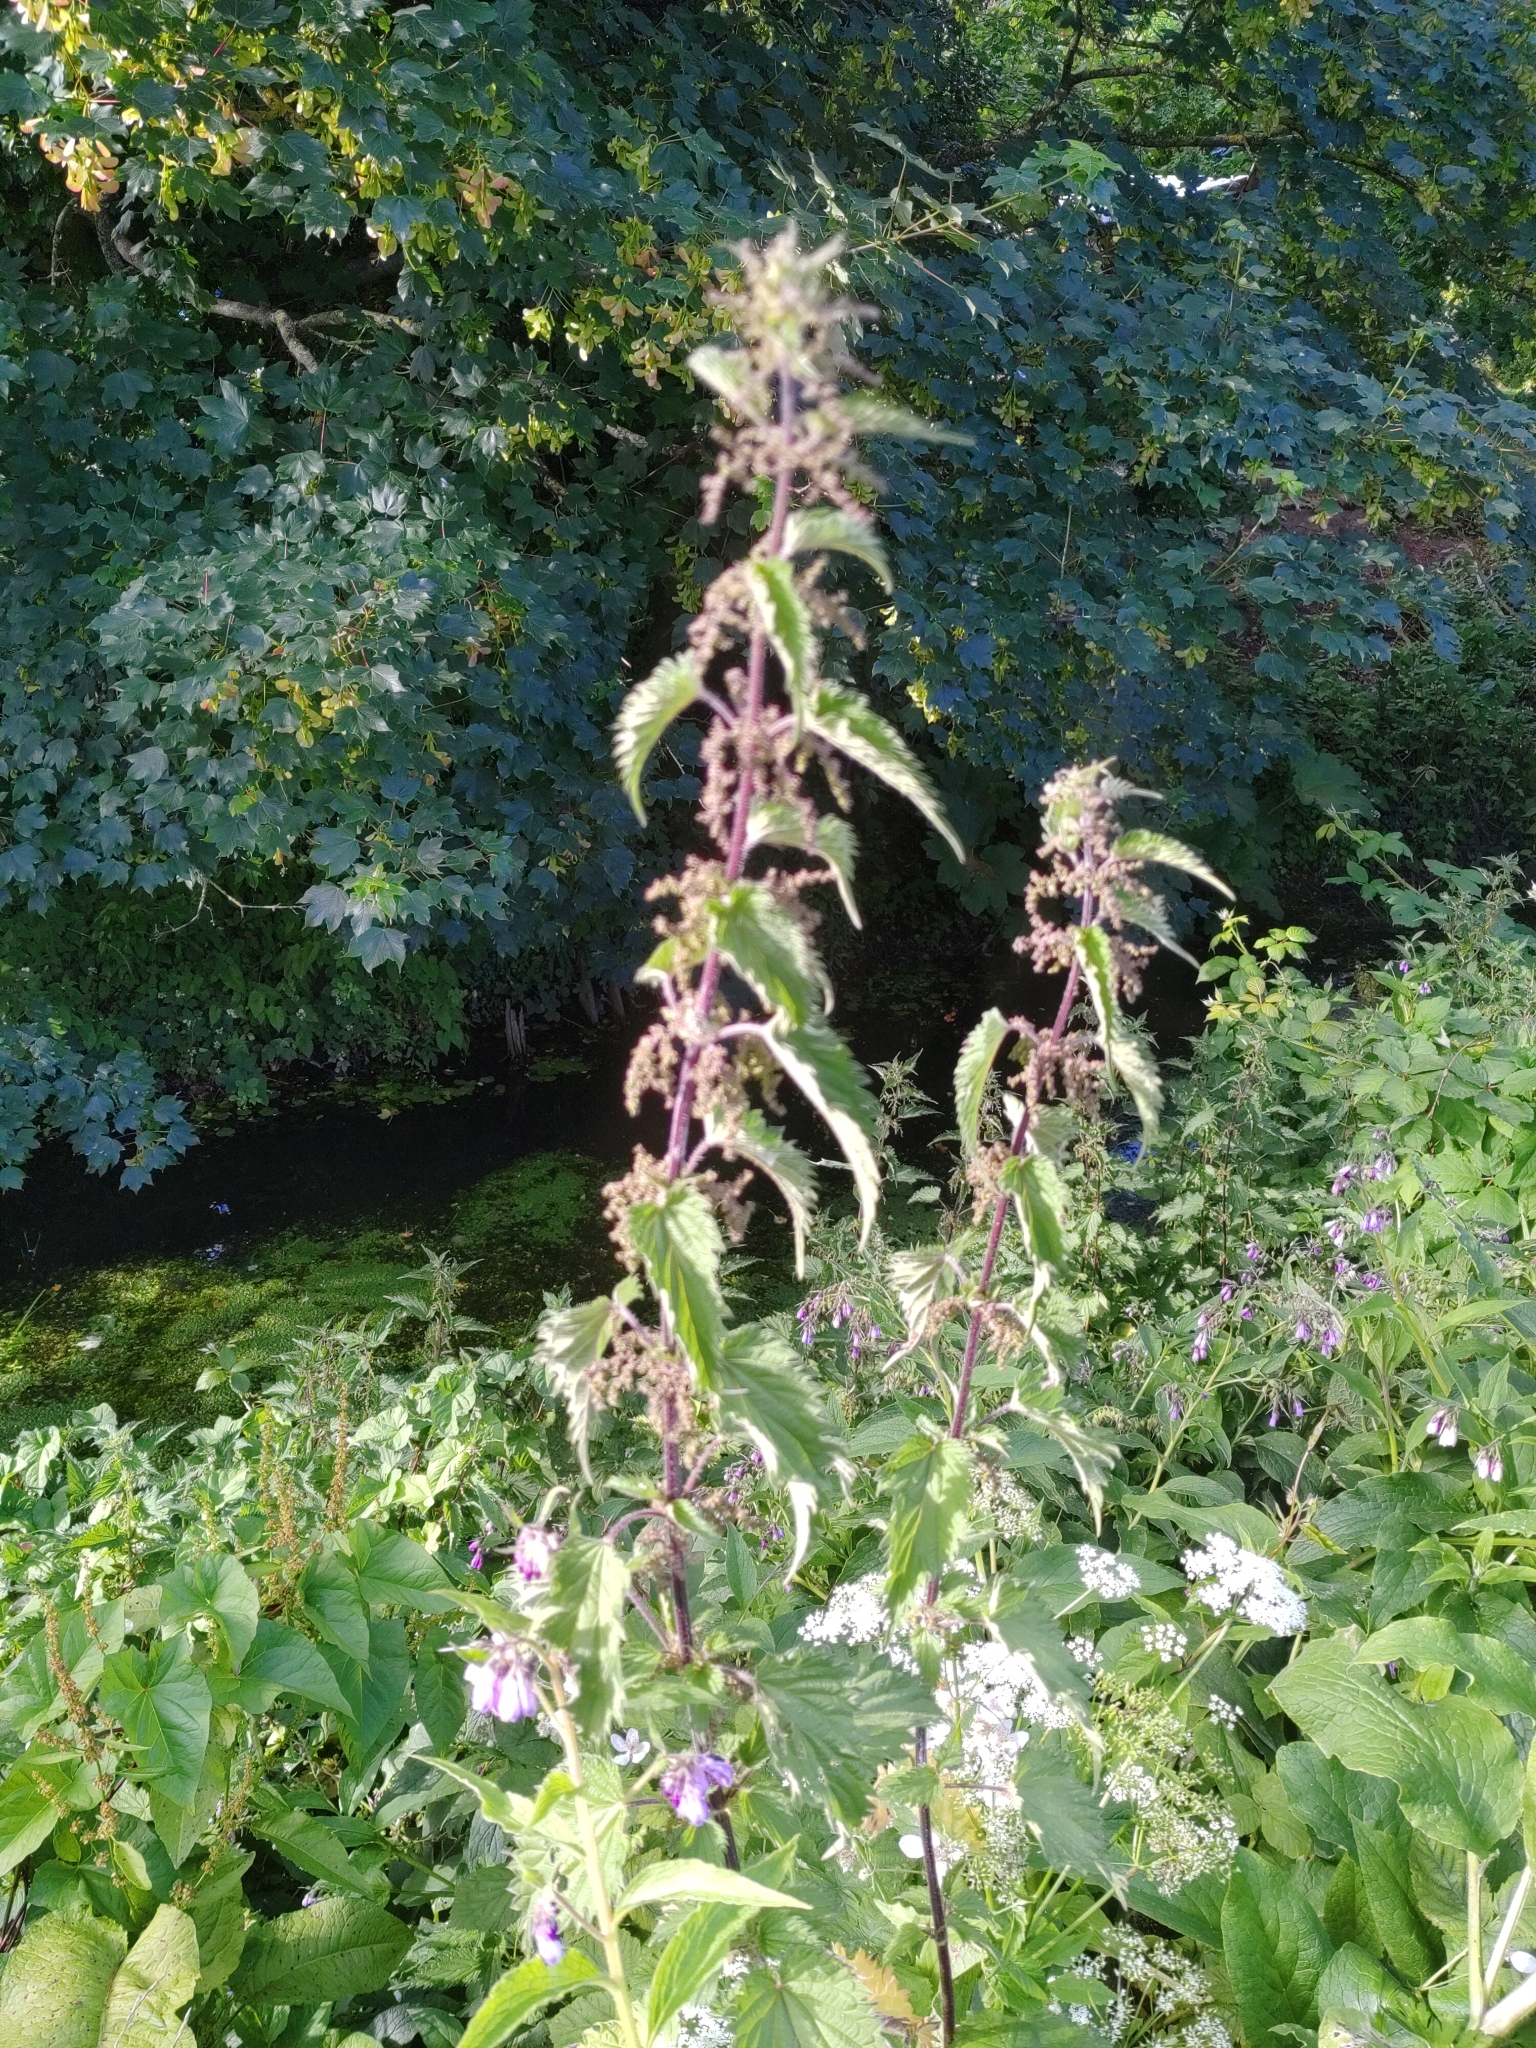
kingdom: Plantae
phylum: Tracheophyta
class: Magnoliopsida
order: Rosales
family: Urticaceae
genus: Urtica
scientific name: Urtica dioica
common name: Common nettle
